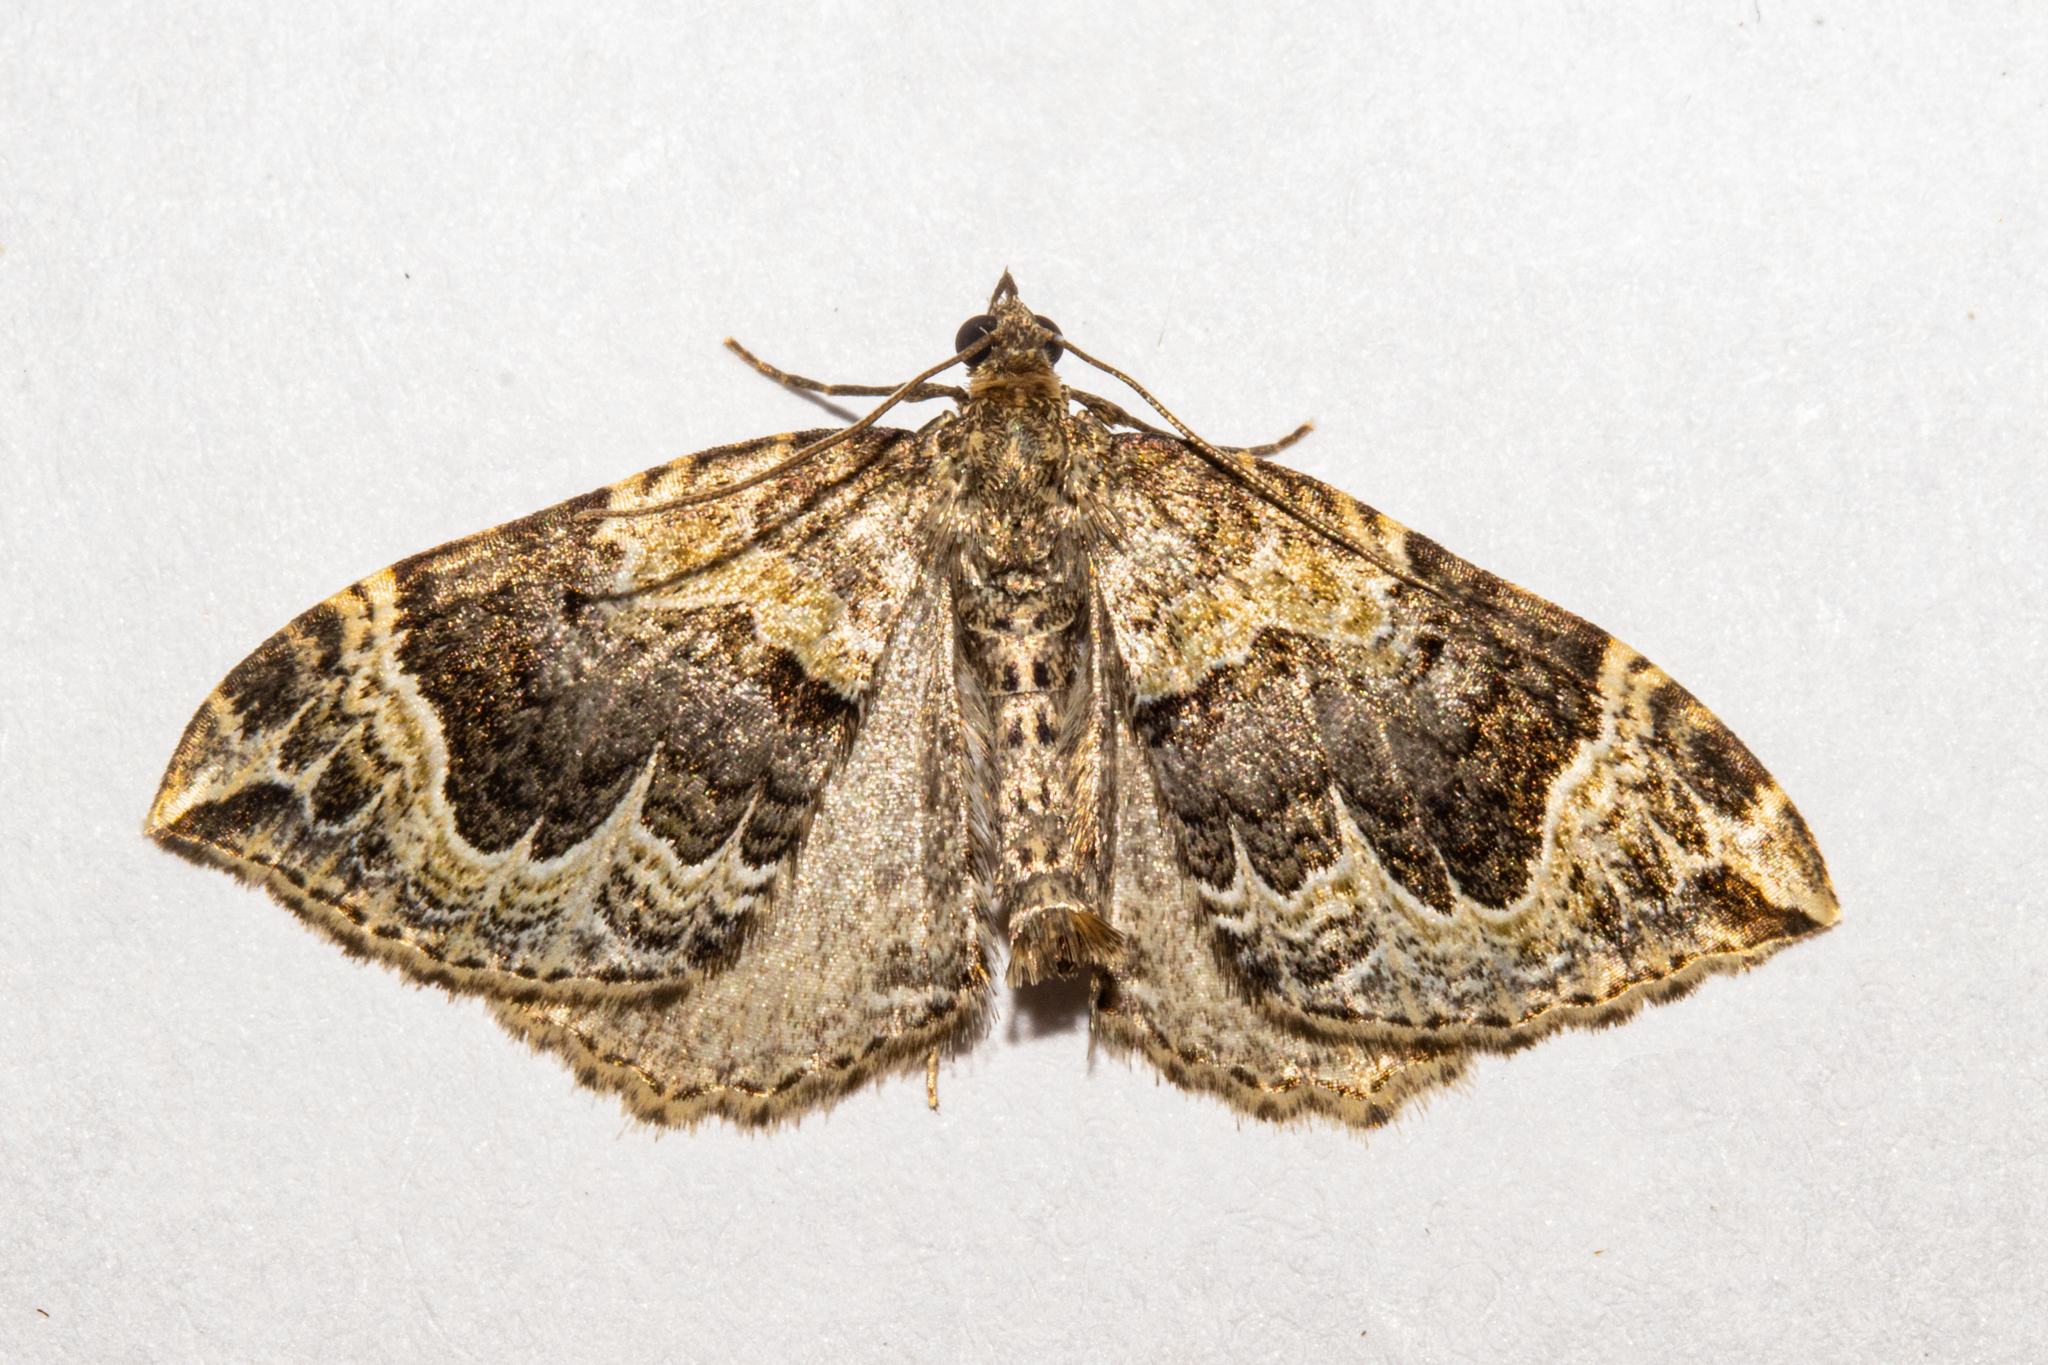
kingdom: Animalia
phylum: Arthropoda
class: Insecta
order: Lepidoptera
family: Geometridae
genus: Hydriomena
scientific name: Hydriomena rixata
